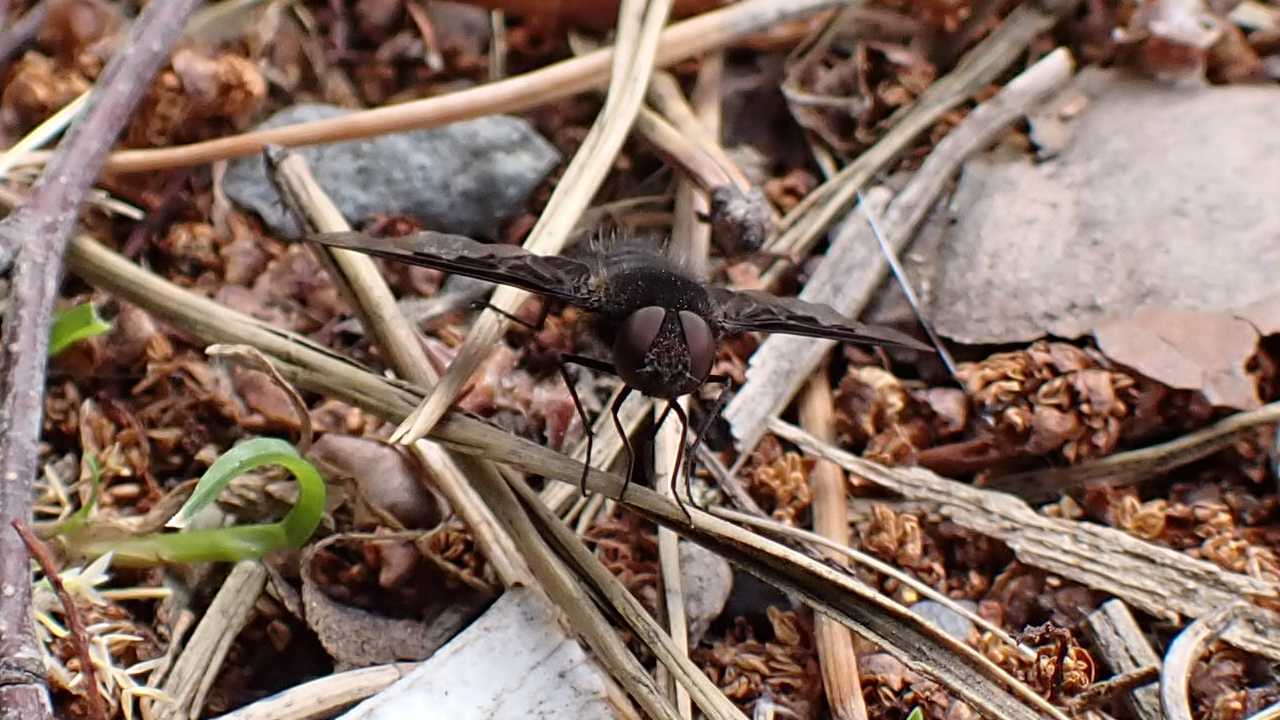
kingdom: Animalia
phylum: Arthropoda
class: Insecta
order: Diptera
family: Bombyliidae
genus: Hemipenthes
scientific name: Hemipenthes morio
